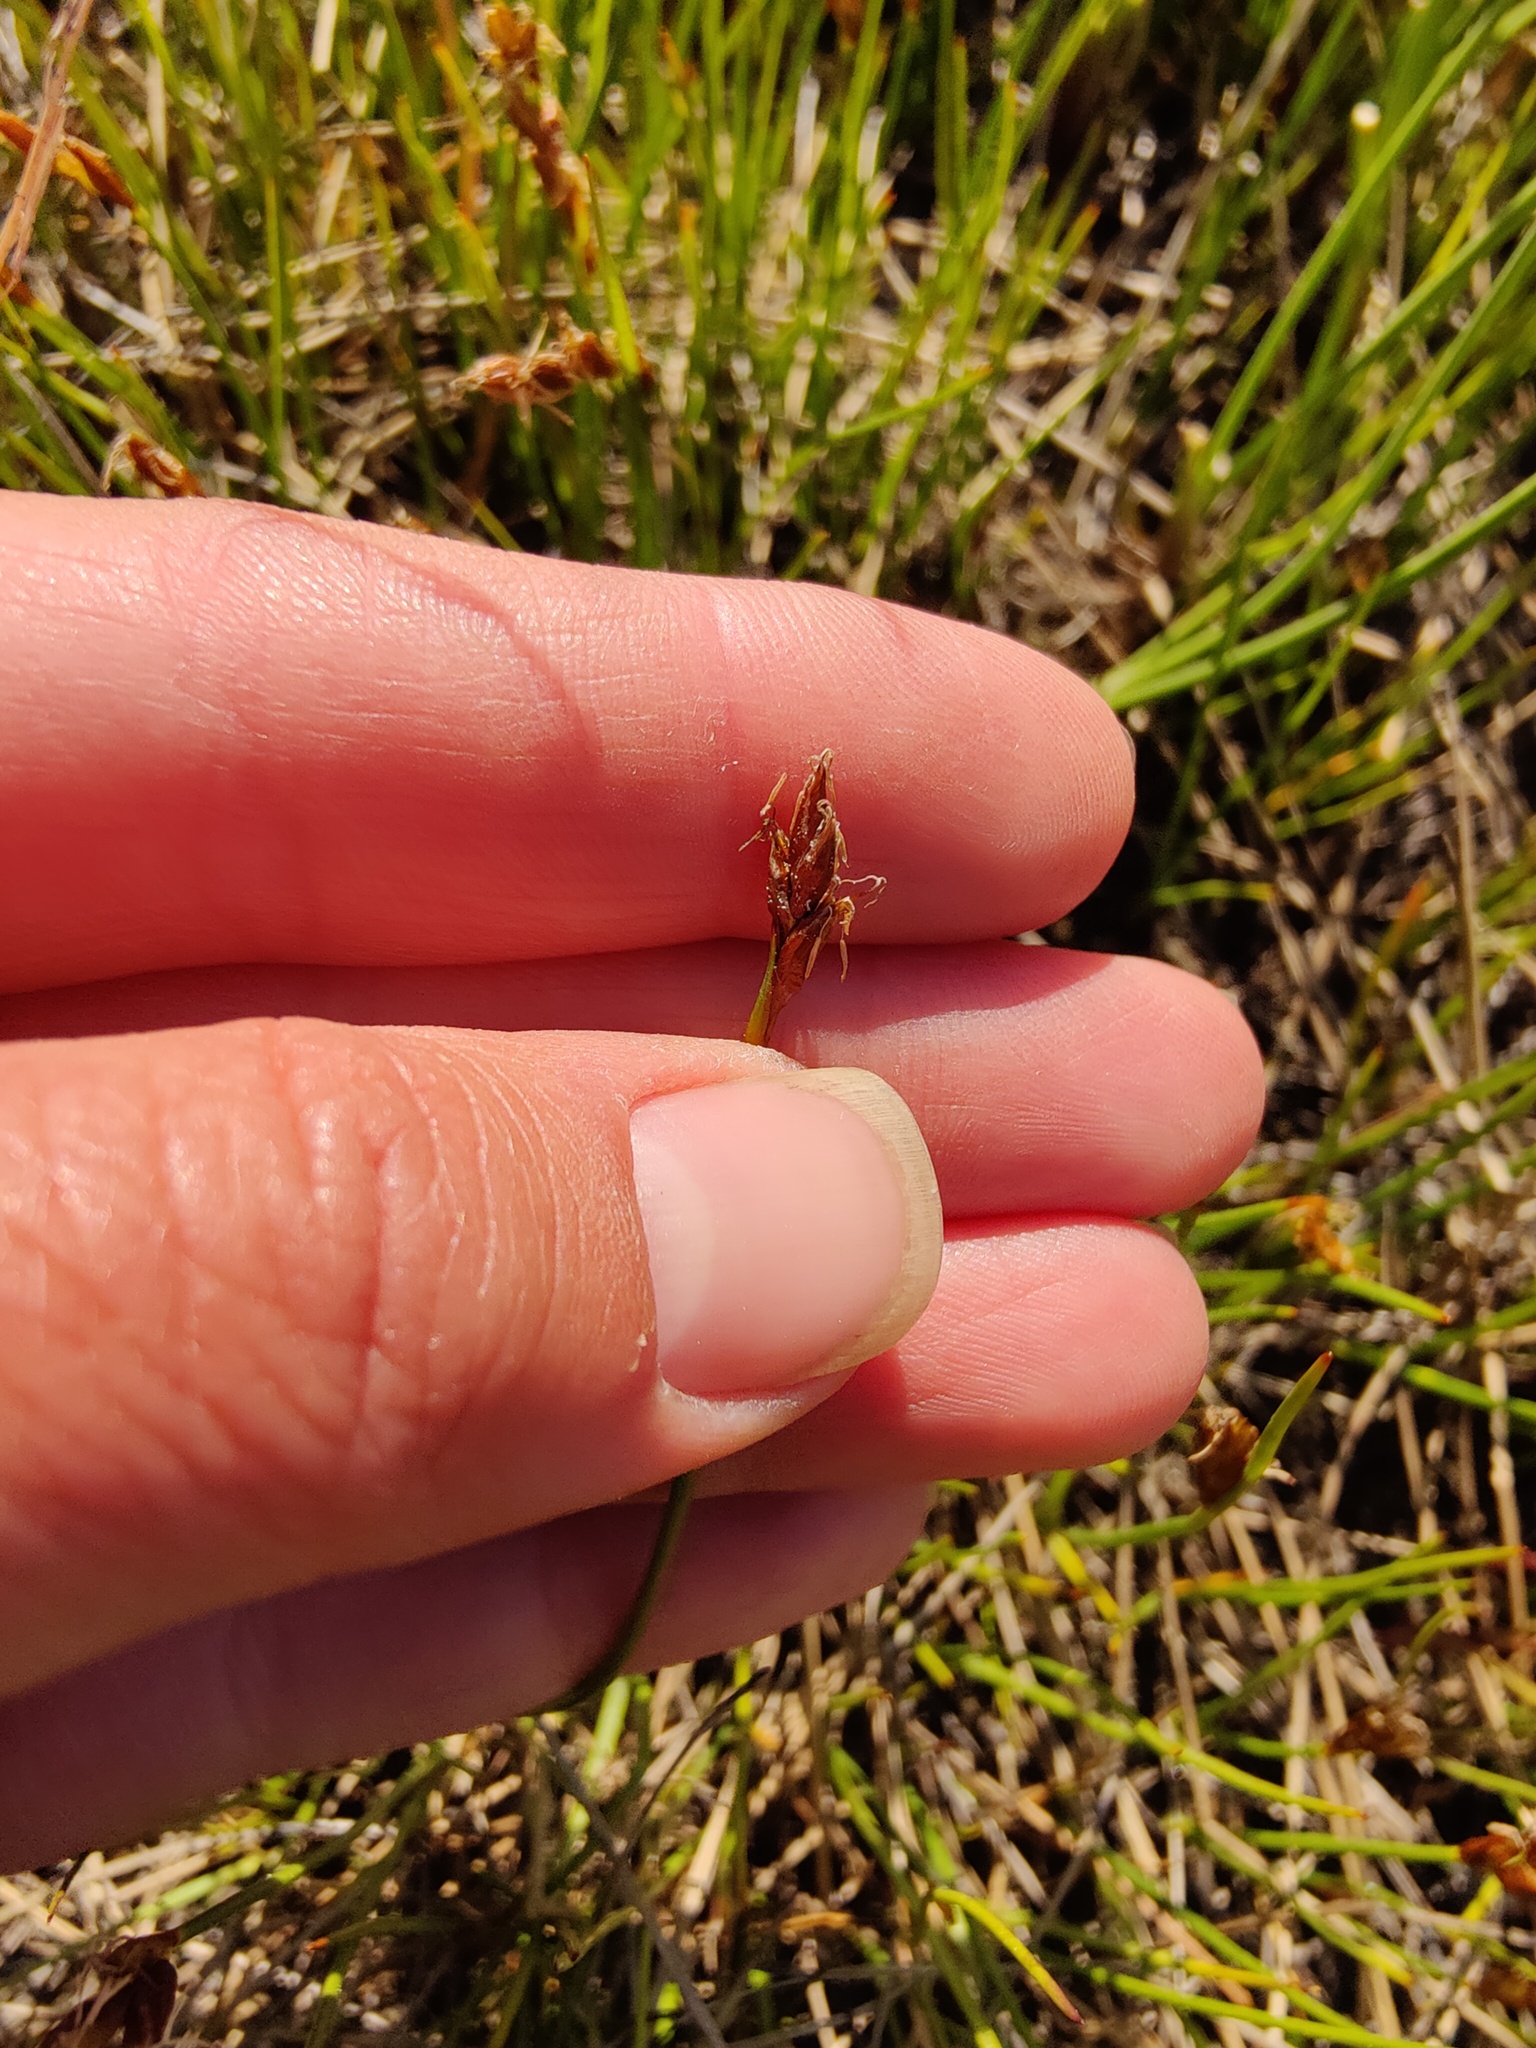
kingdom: Plantae
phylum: Tracheophyta
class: Liliopsida
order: Poales
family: Cyperaceae
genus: Blysmus
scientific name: Blysmus rufus
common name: Saltmarsh flat-sedge
